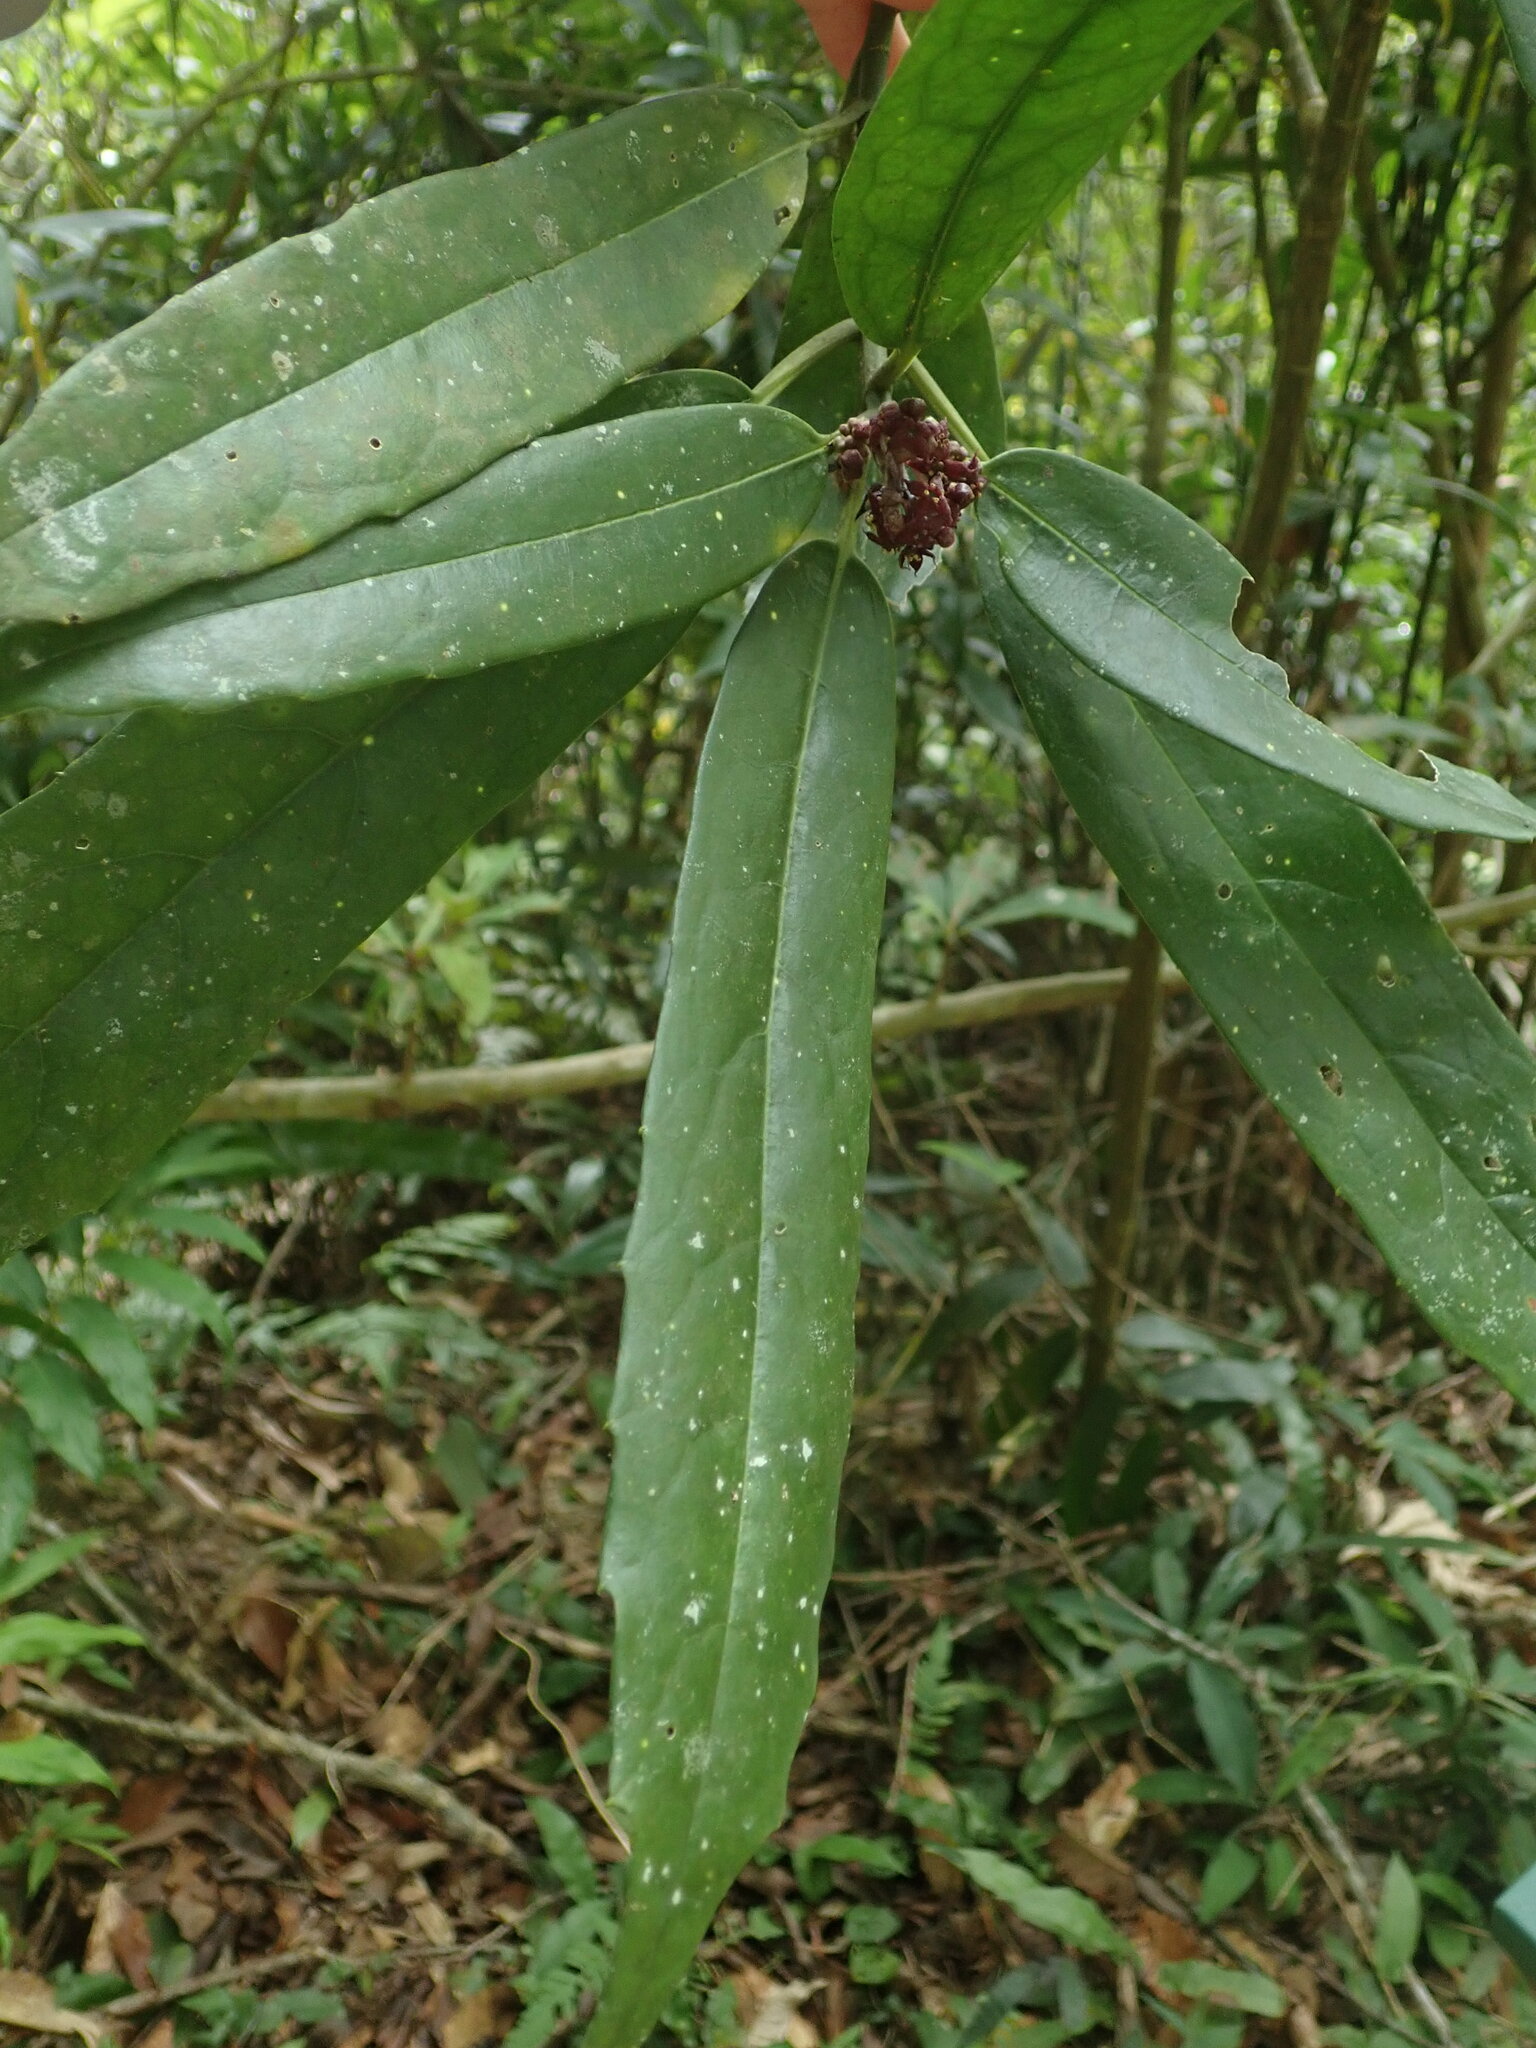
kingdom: Plantae
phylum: Tracheophyta
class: Magnoliopsida
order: Garryales
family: Garryaceae
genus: Aucuba
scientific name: Aucuba chinensis
